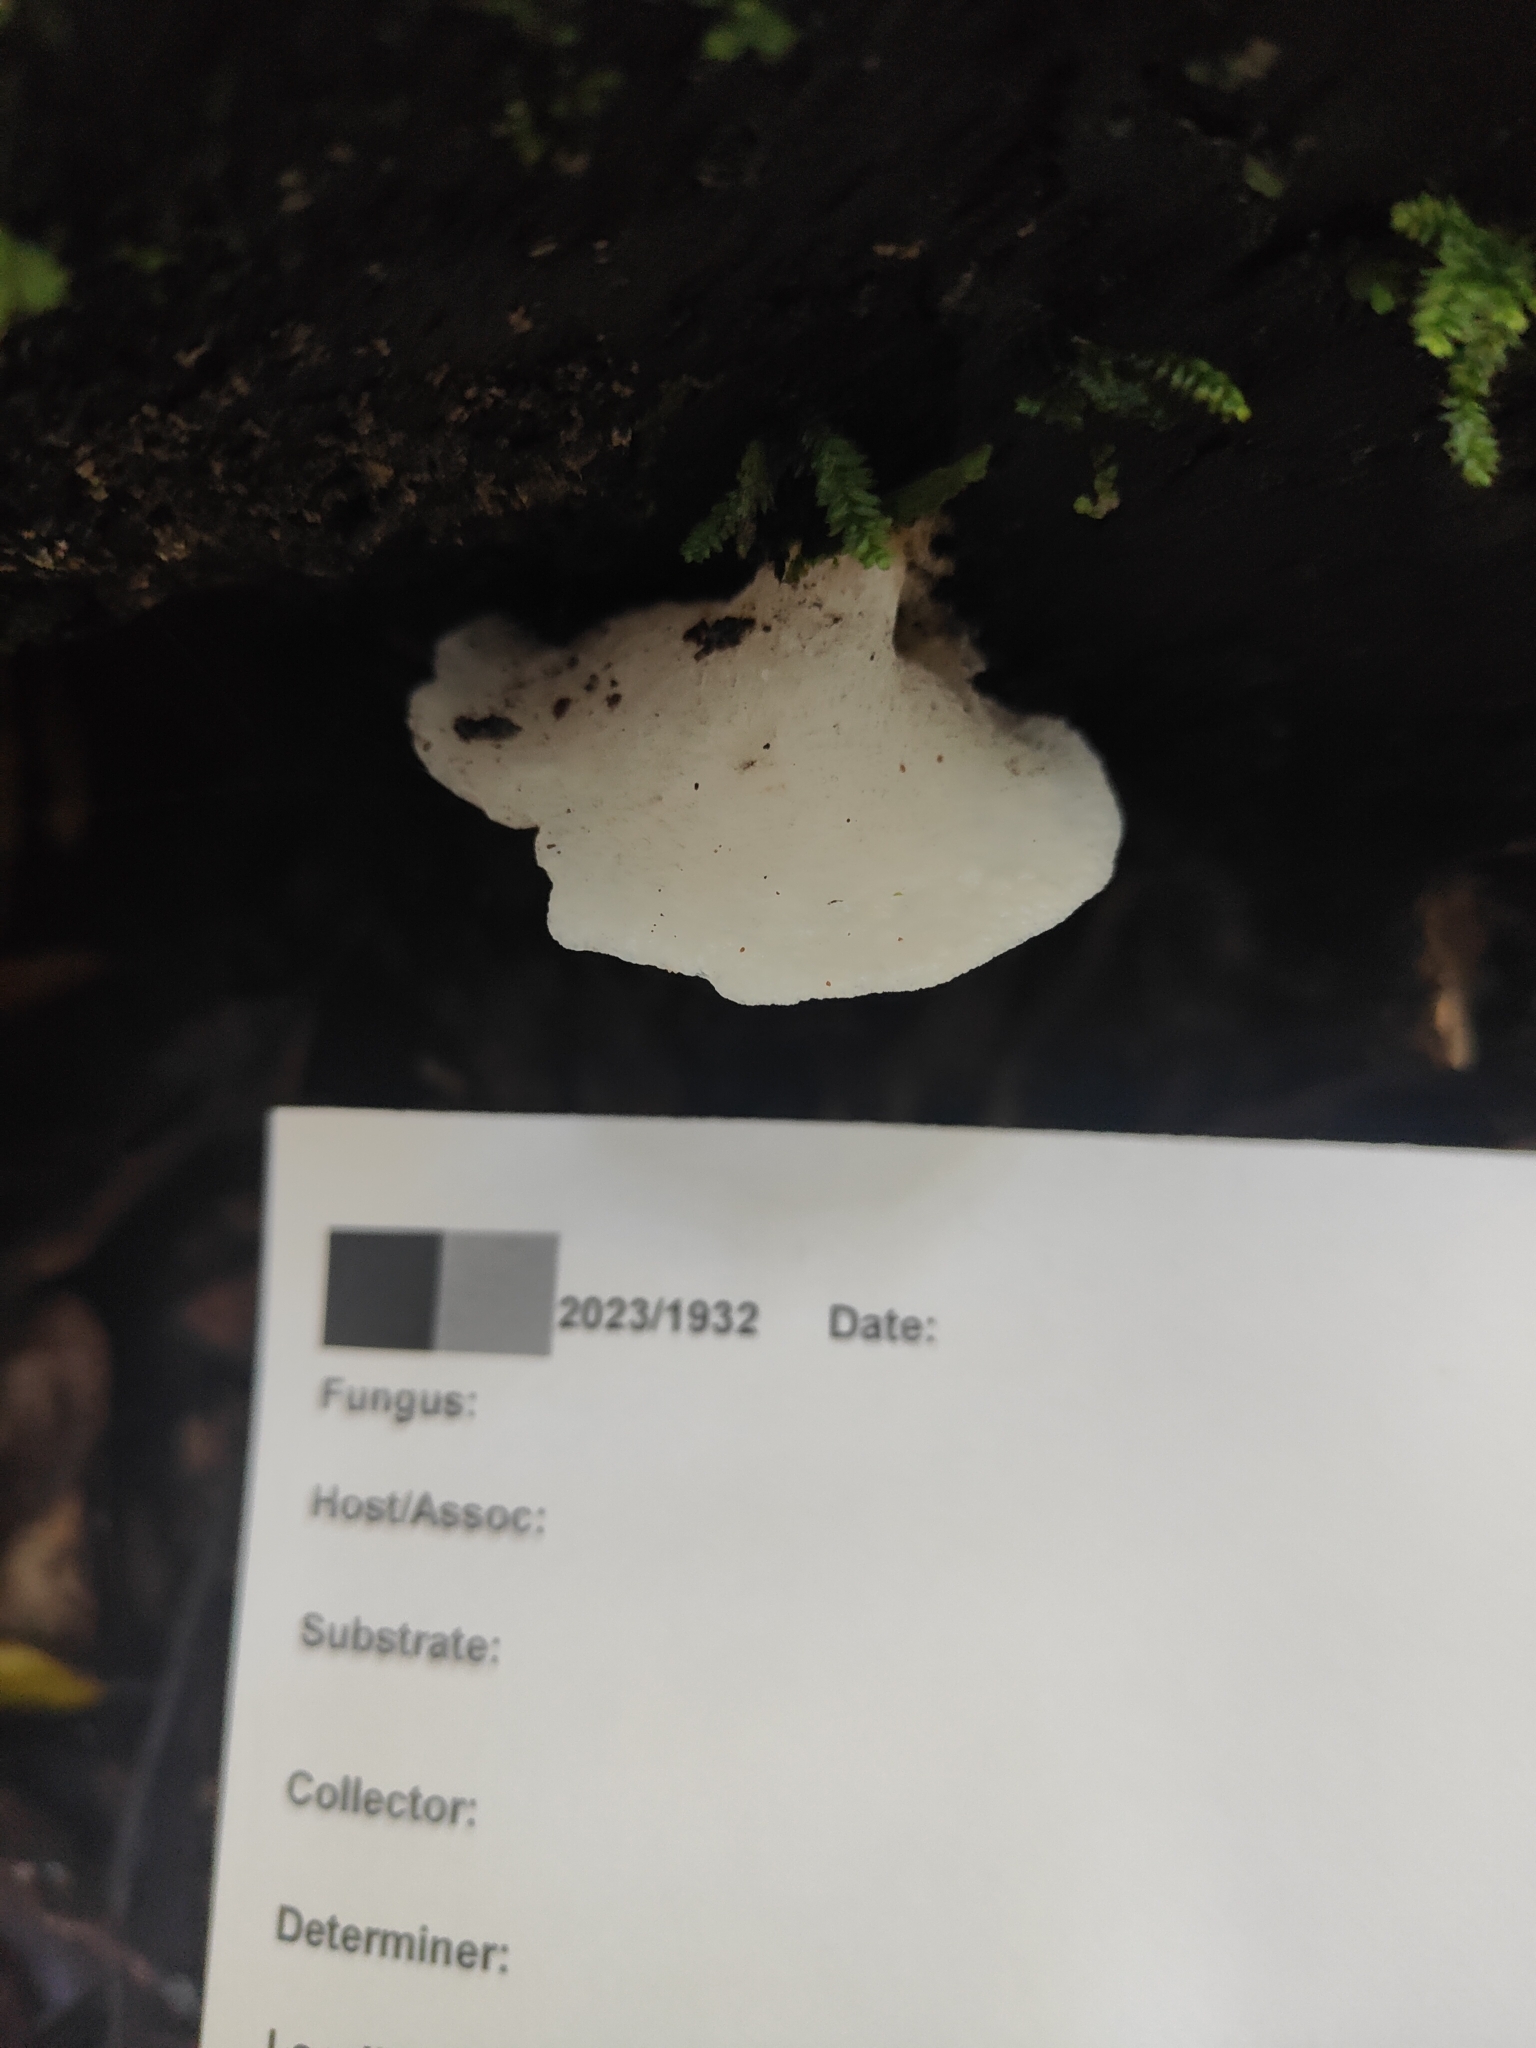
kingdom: Fungi
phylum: Basidiomycota
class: Agaricomycetes
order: Agaricales
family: Mycenaceae
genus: Favolaschia
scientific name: Favolaschia pustulosa
